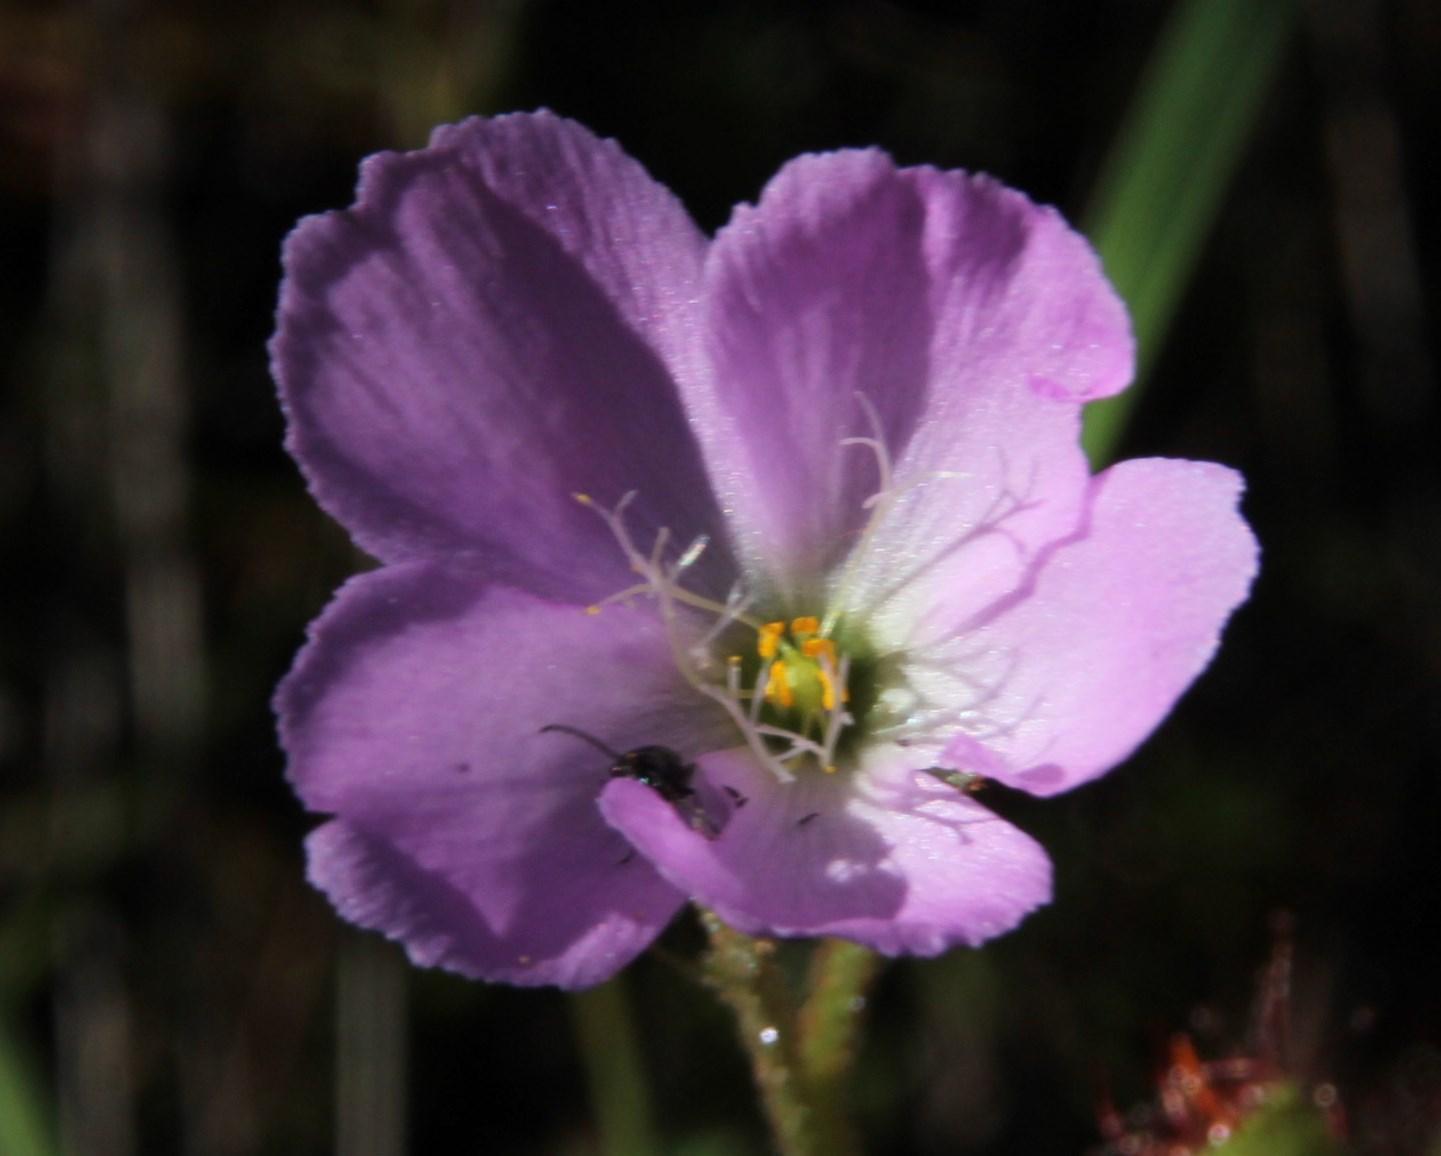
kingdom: Plantae
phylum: Tracheophyta
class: Magnoliopsida
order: Caryophyllales
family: Droseraceae
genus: Drosera
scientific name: Drosera cistiflora
